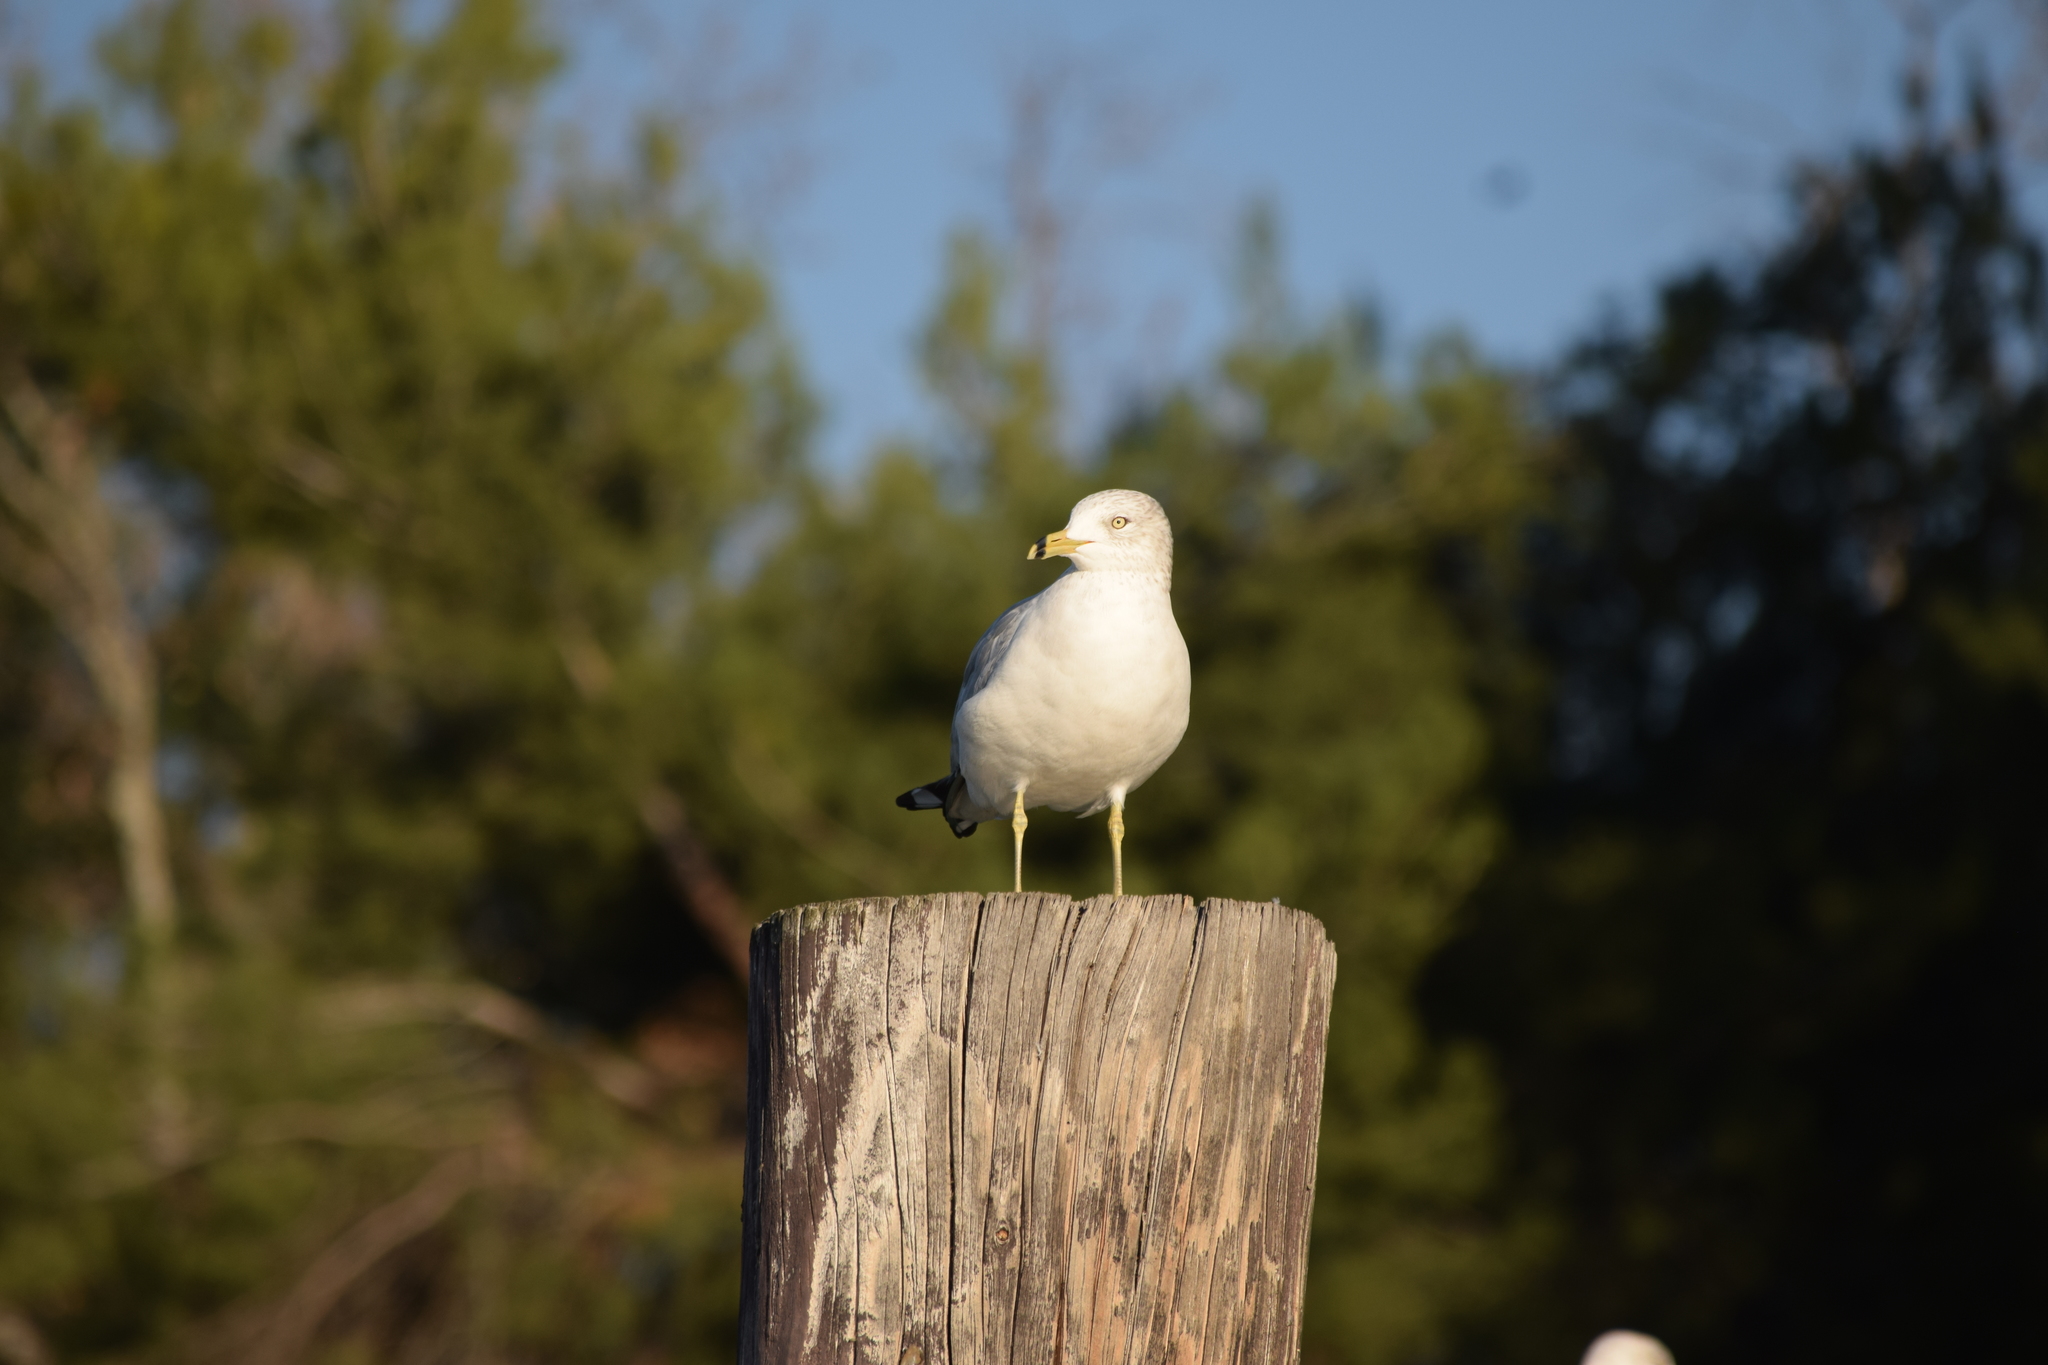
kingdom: Animalia
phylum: Chordata
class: Aves
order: Charadriiformes
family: Laridae
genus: Larus
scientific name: Larus delawarensis
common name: Ring-billed gull
